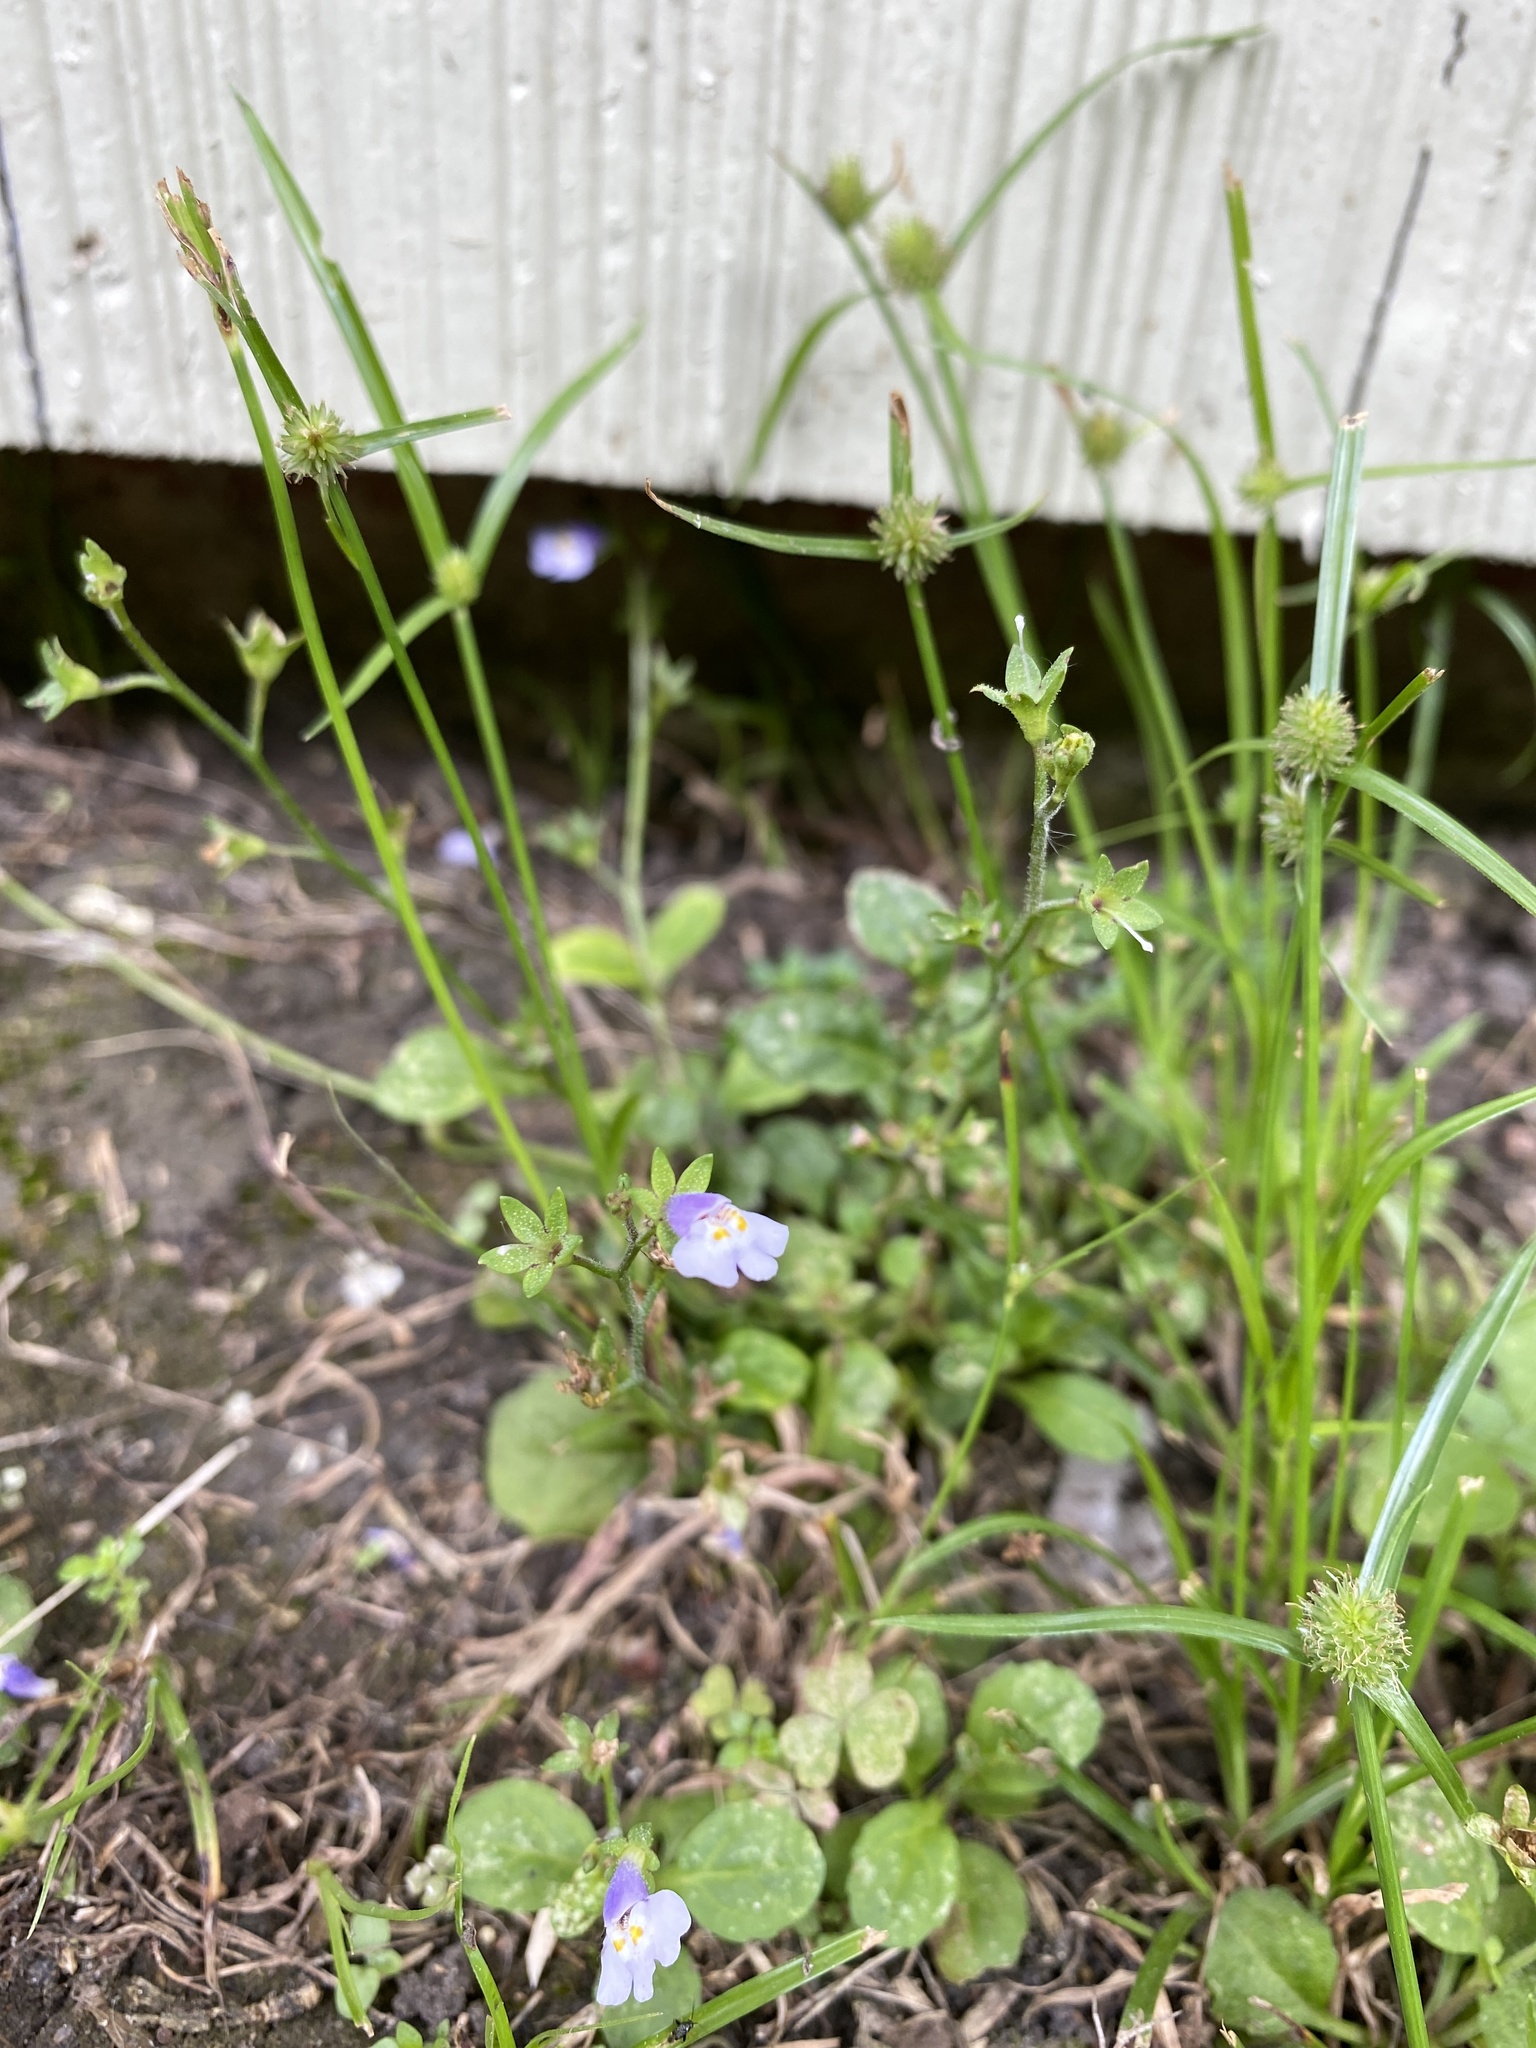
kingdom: Plantae
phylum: Tracheophyta
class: Magnoliopsida
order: Lamiales
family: Mazaceae
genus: Mazus
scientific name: Mazus pumilus
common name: Japanese mazus
